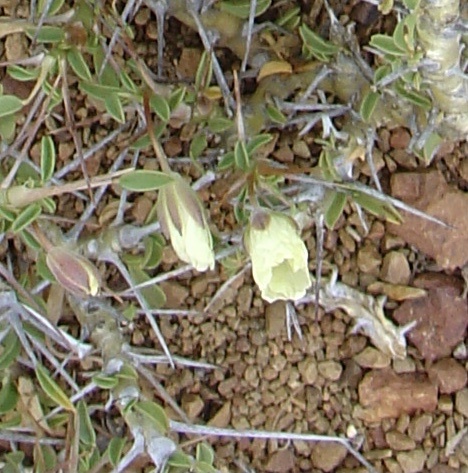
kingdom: Plantae
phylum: Tracheophyta
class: Magnoliopsida
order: Geraniales
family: Geraniaceae
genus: Monsonia
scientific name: Monsonia camdeboensis
